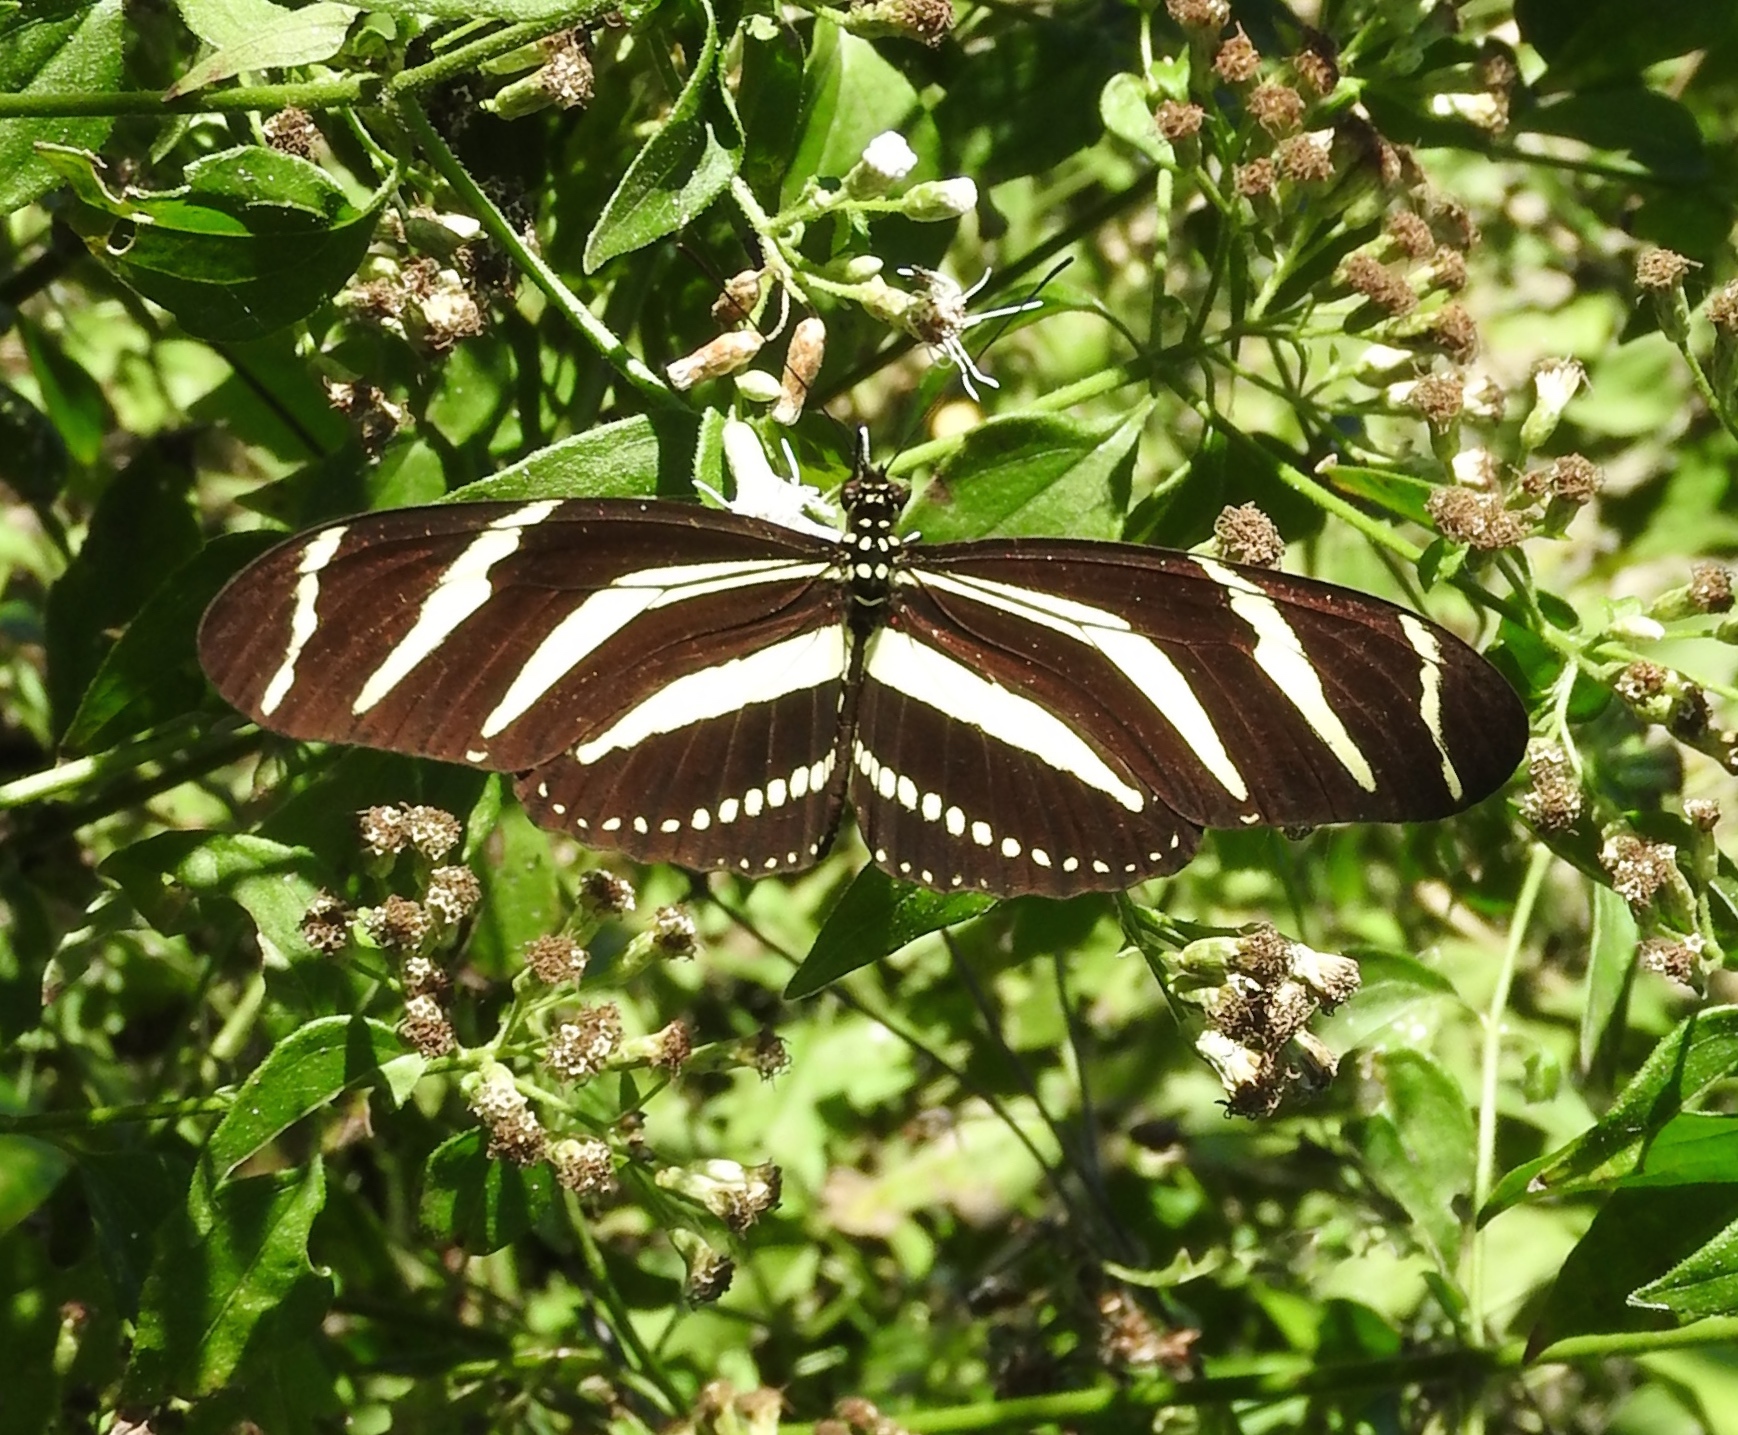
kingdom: Animalia
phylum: Arthropoda
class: Insecta
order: Lepidoptera
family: Nymphalidae
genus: Heliconius
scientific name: Heliconius charithonia
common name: Zebra long wing
